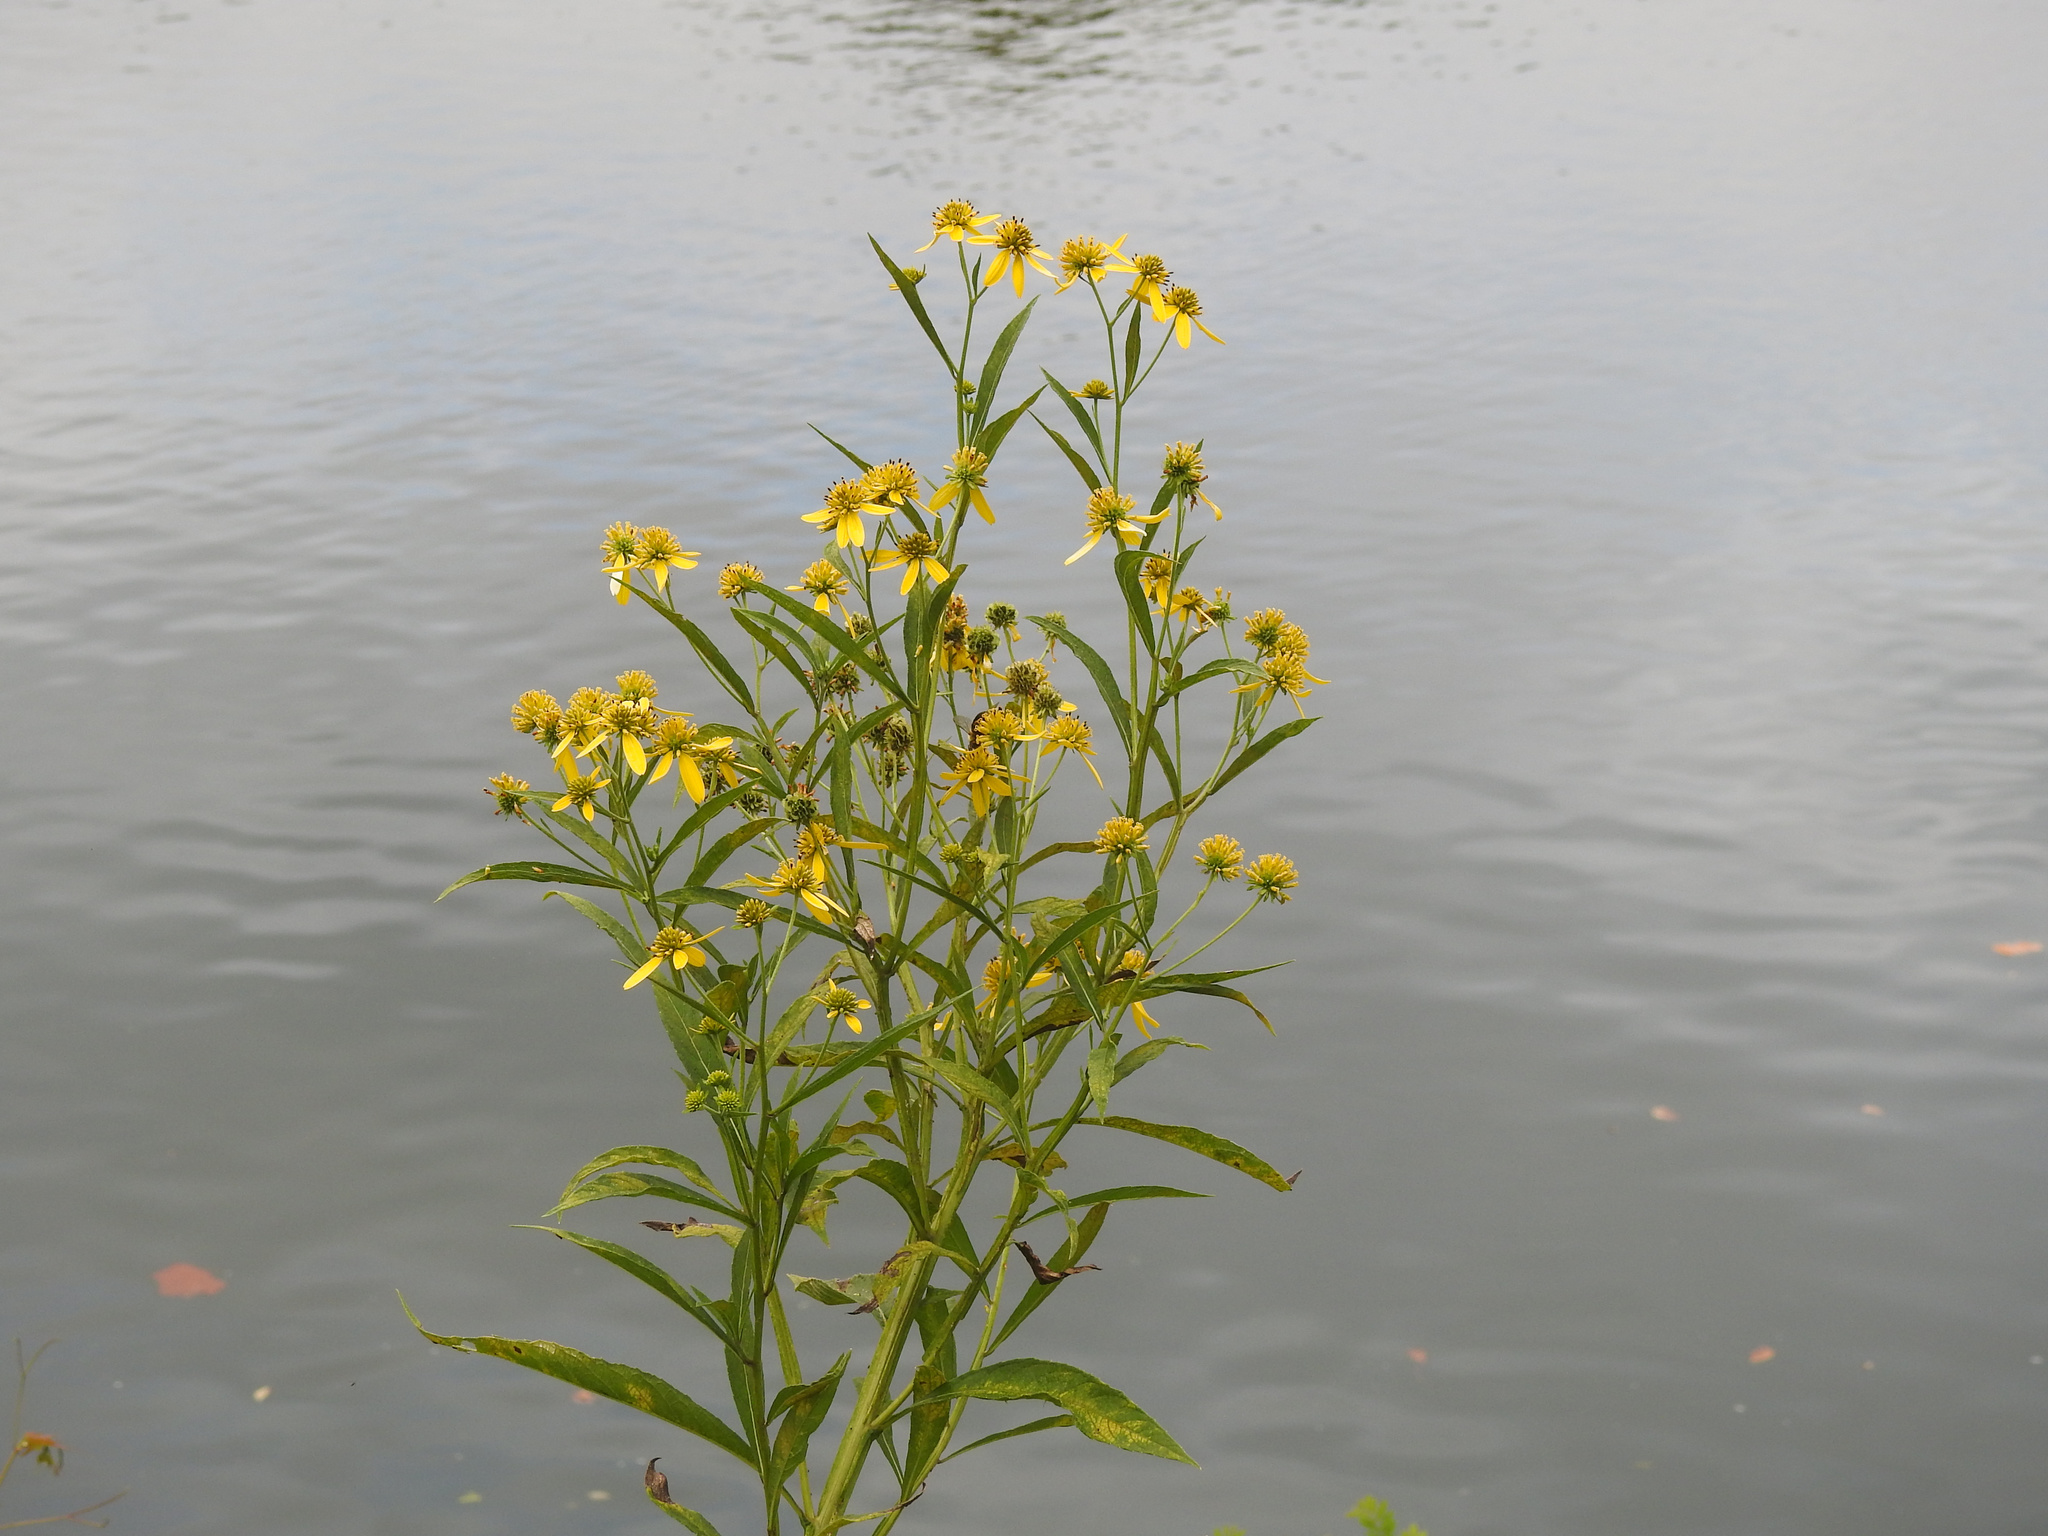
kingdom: Plantae
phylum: Tracheophyta
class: Magnoliopsida
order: Asterales
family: Asteraceae
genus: Verbesina
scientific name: Verbesina alternifolia
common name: Wingstem
